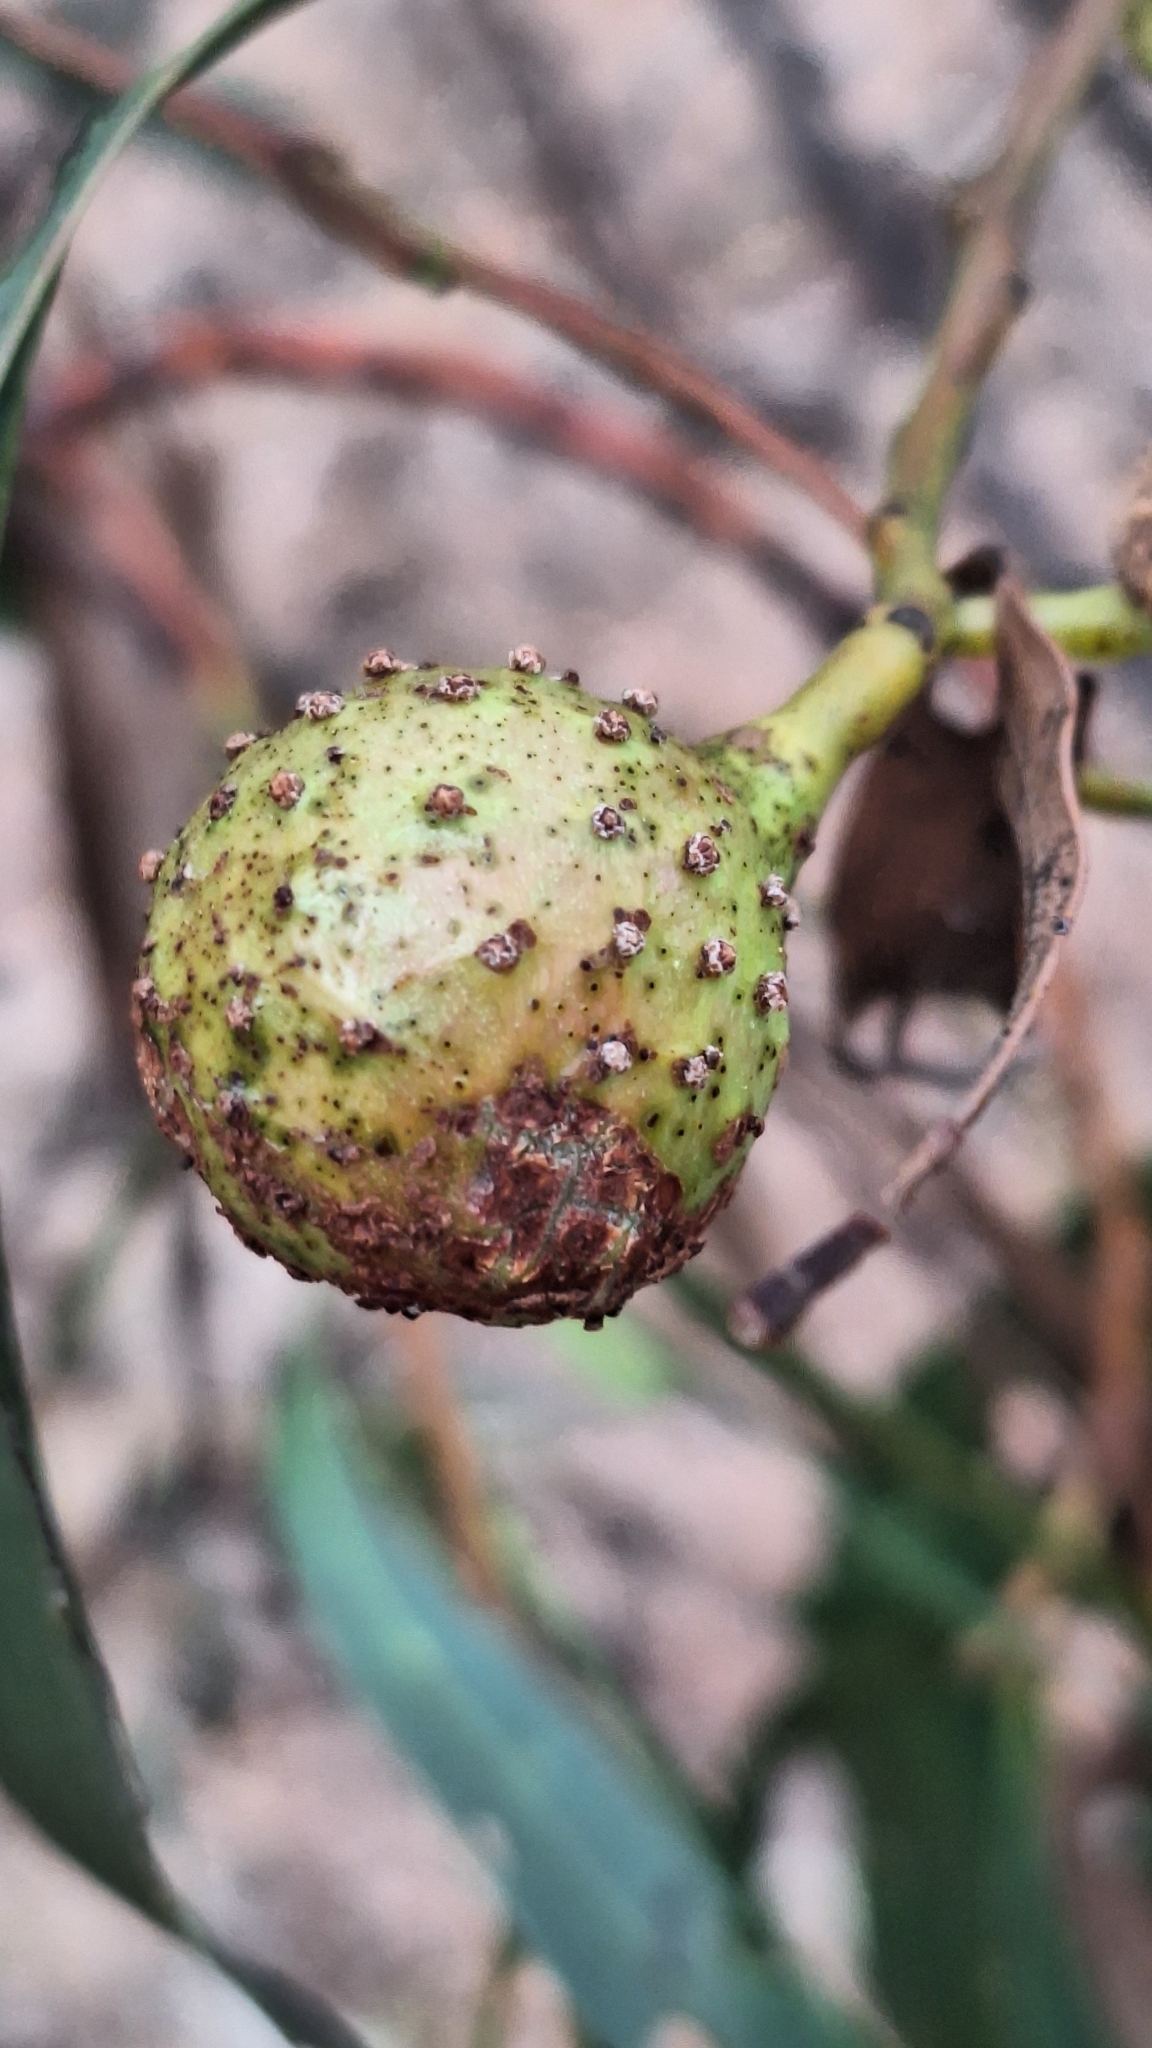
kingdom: Animalia
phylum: Arthropoda
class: Insecta
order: Hymenoptera
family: Pteromalidae
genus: Trichilogaster
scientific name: Trichilogaster signiventris
